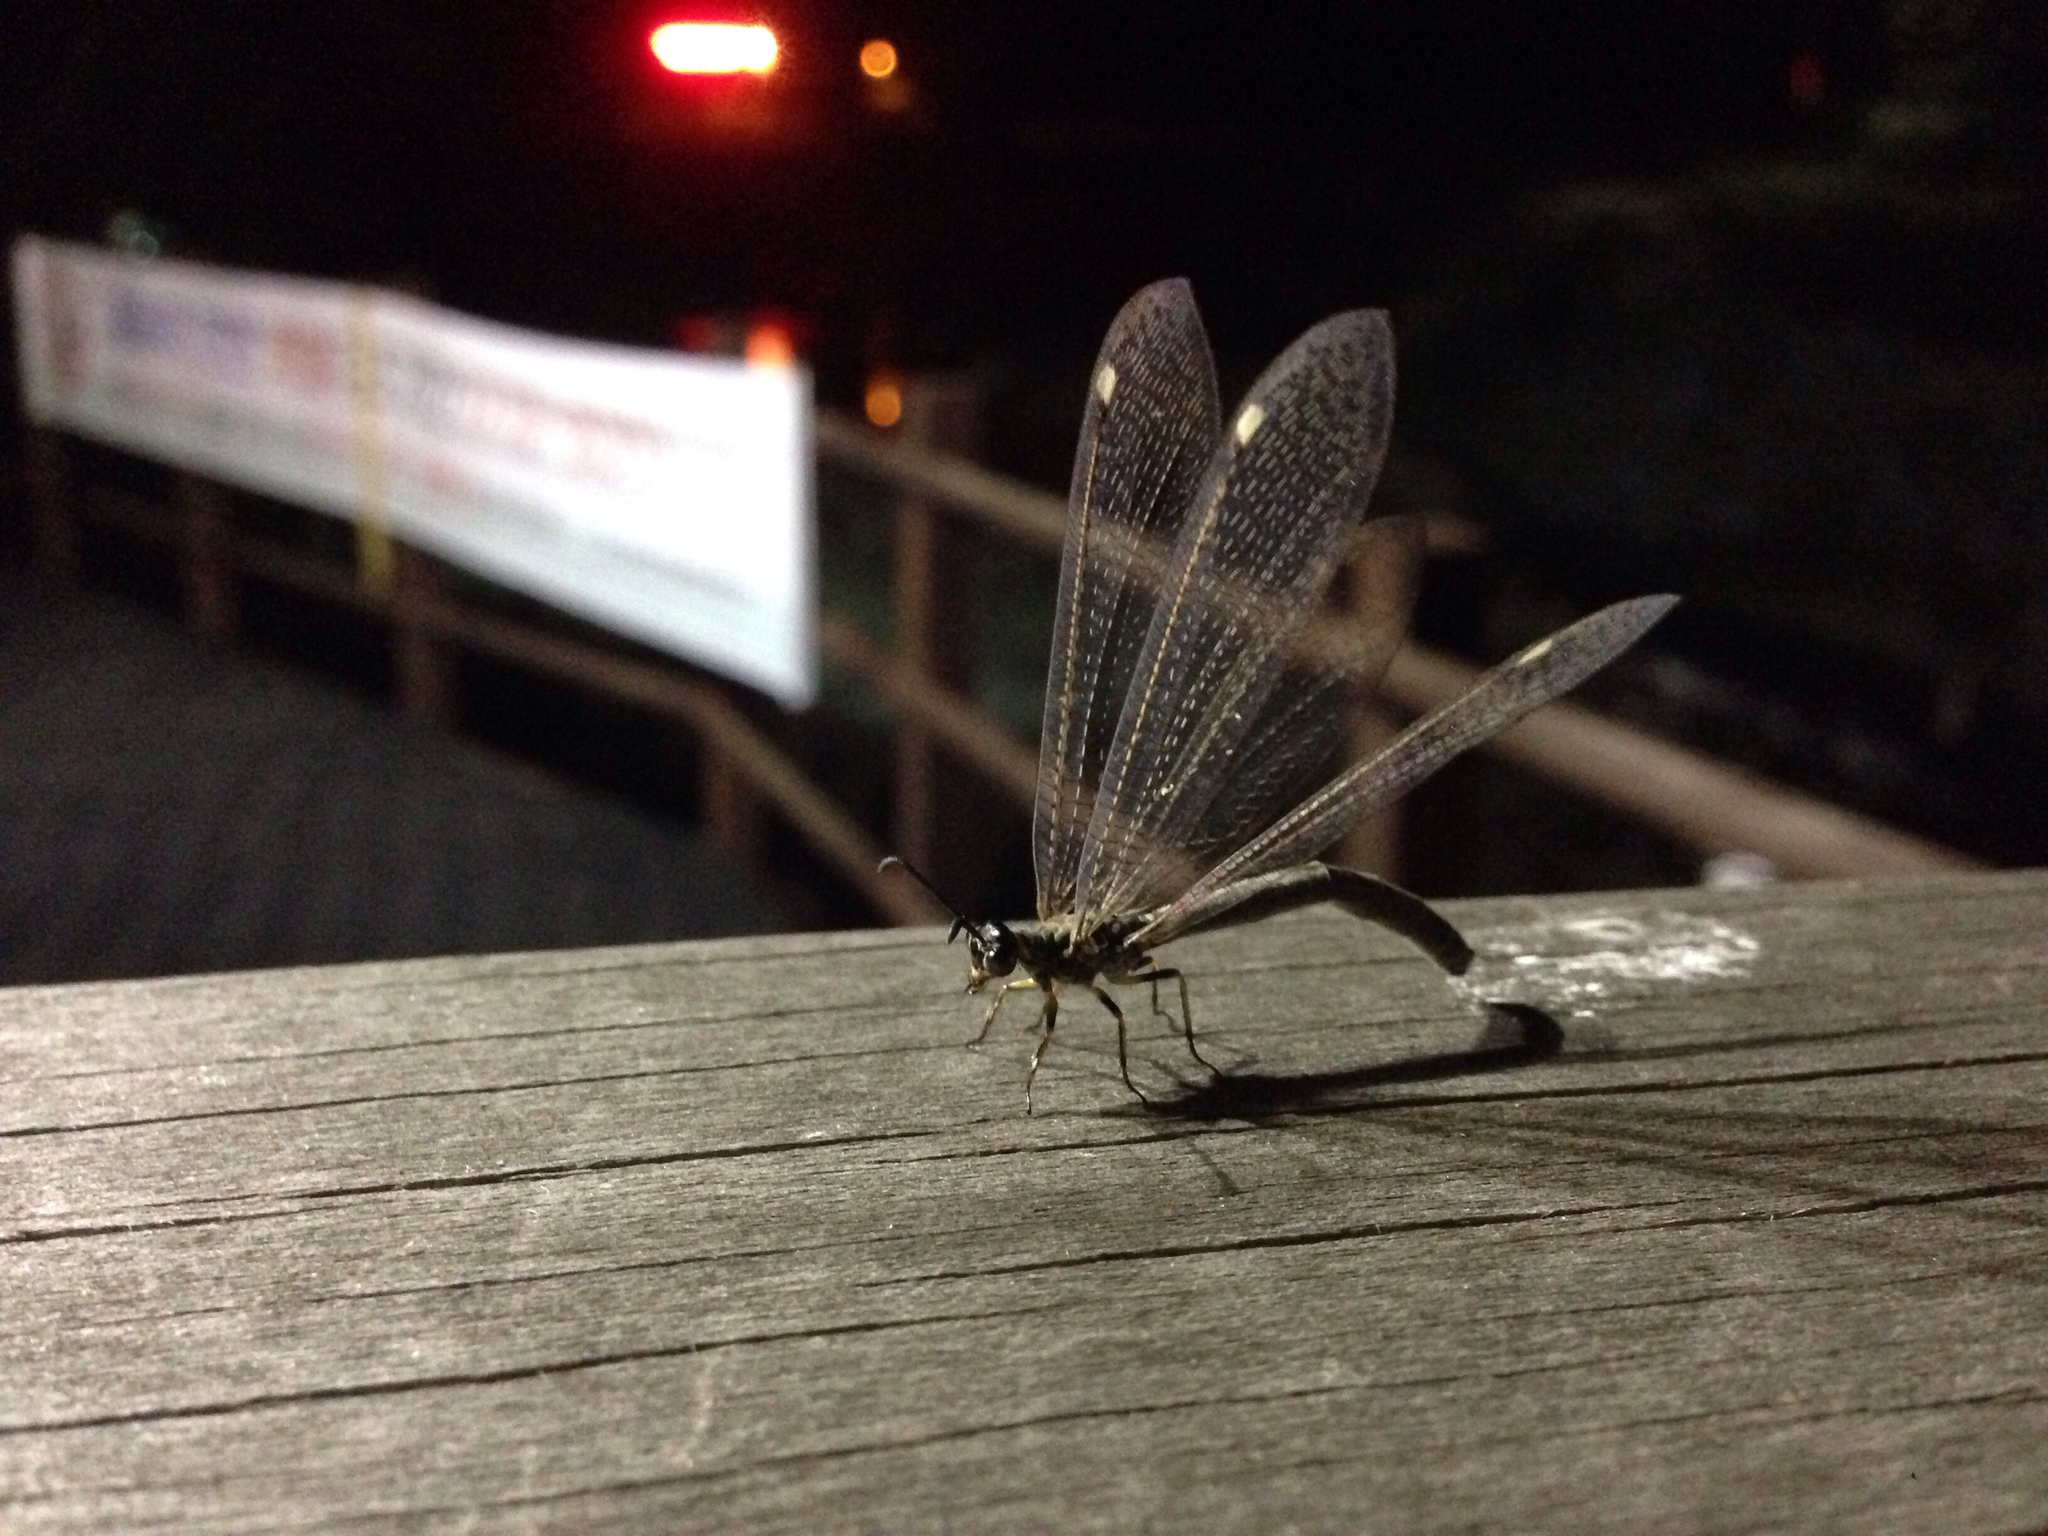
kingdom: Animalia
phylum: Arthropoda
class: Insecta
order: Neuroptera
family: Myrmeleontidae
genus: Hagenomyia
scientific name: Hagenomyia micans
